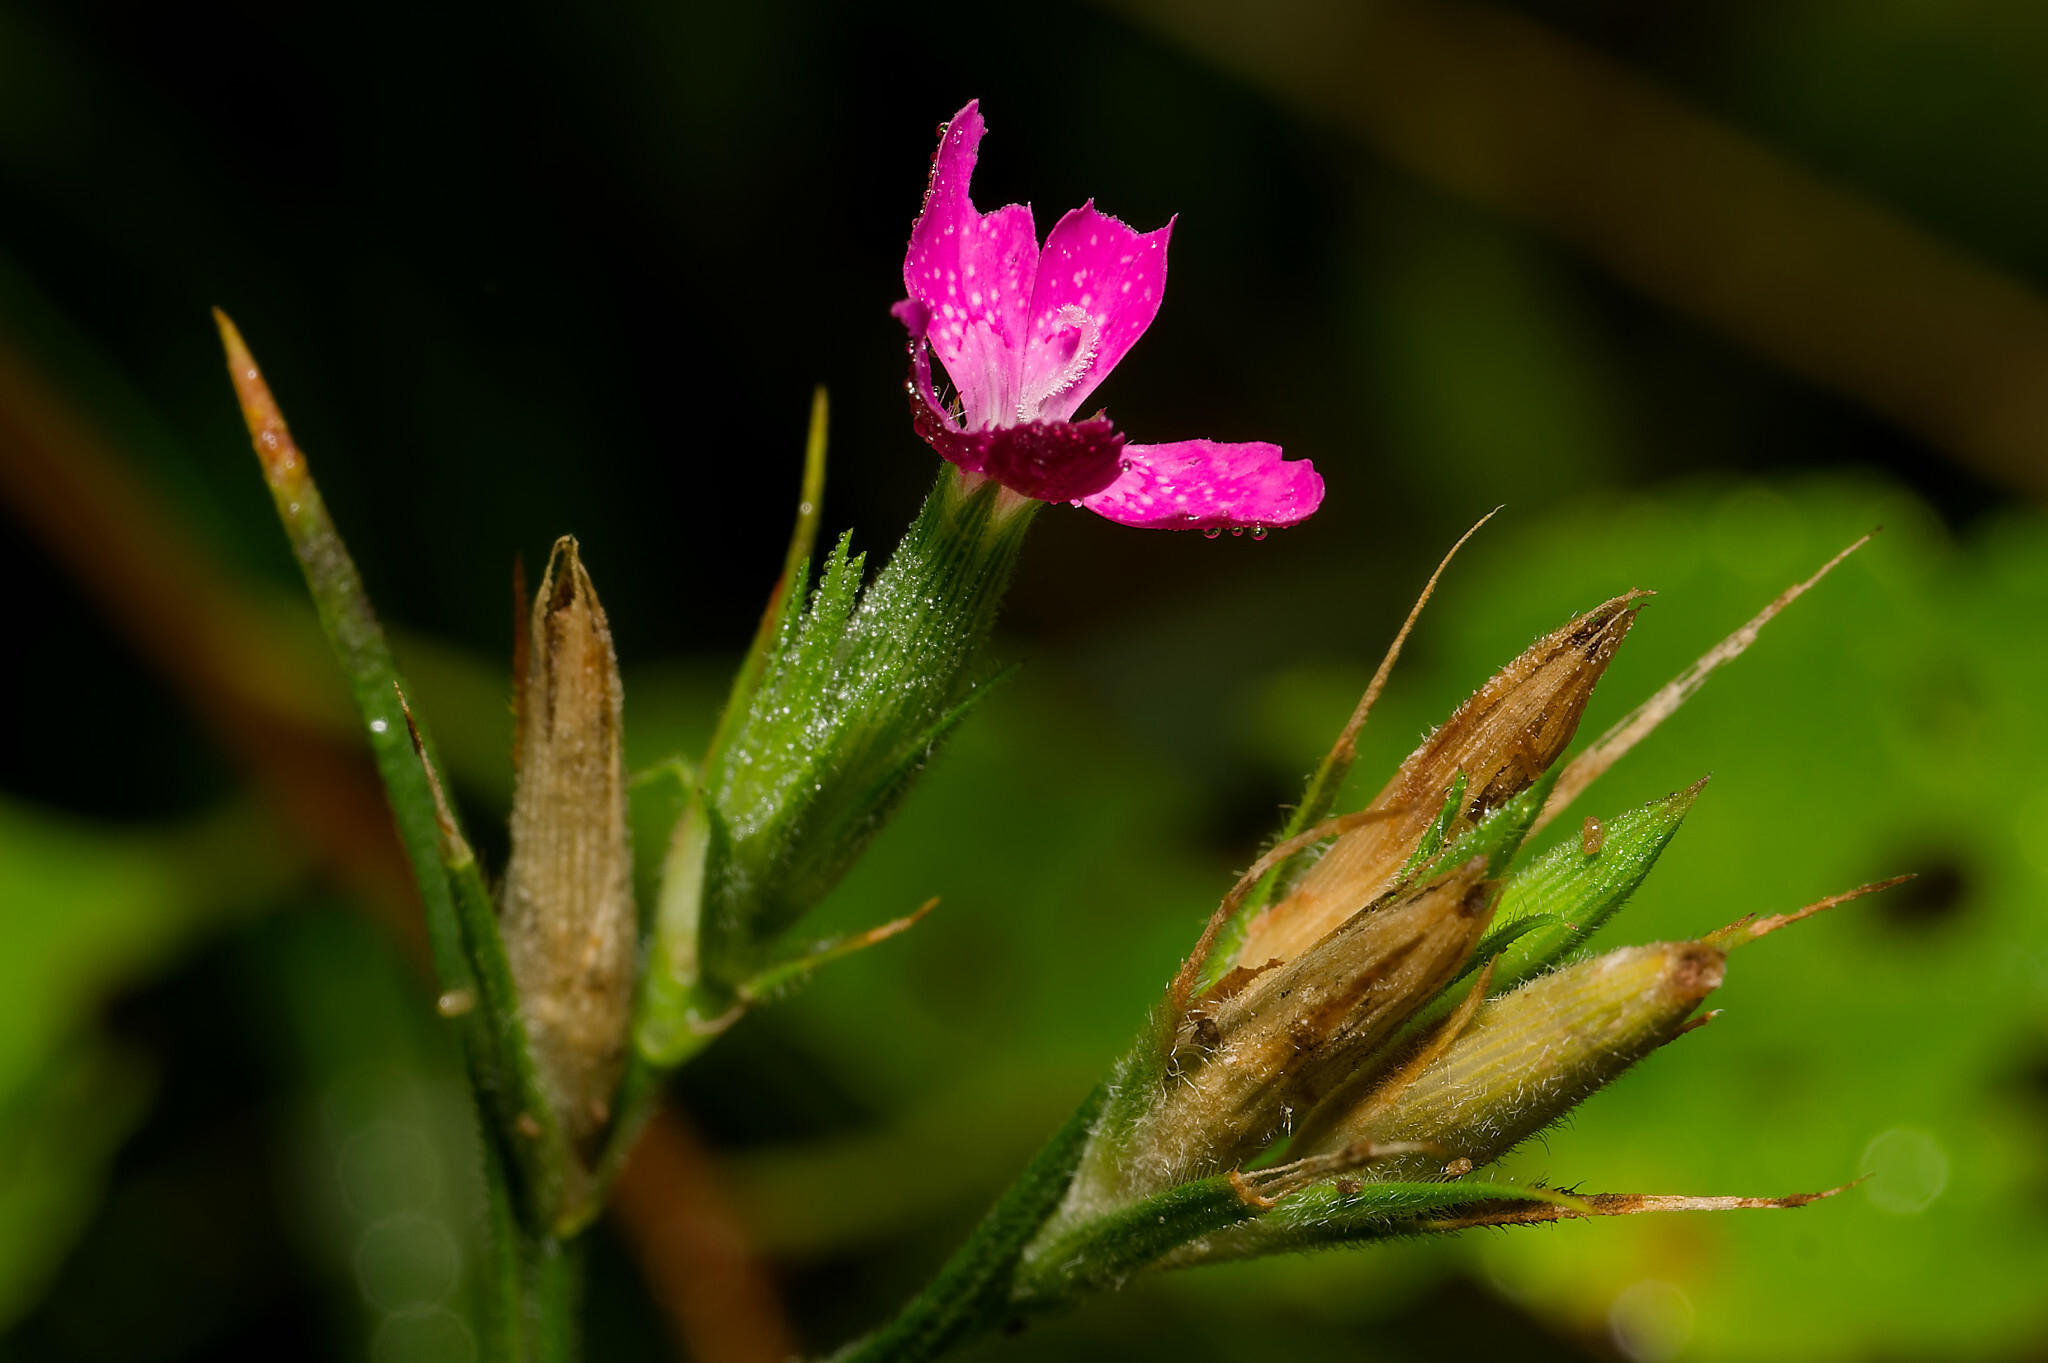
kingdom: Plantae
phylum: Tracheophyta
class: Magnoliopsida
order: Caryophyllales
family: Caryophyllaceae
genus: Dianthus
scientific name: Dianthus armeria
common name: Deptford pink
